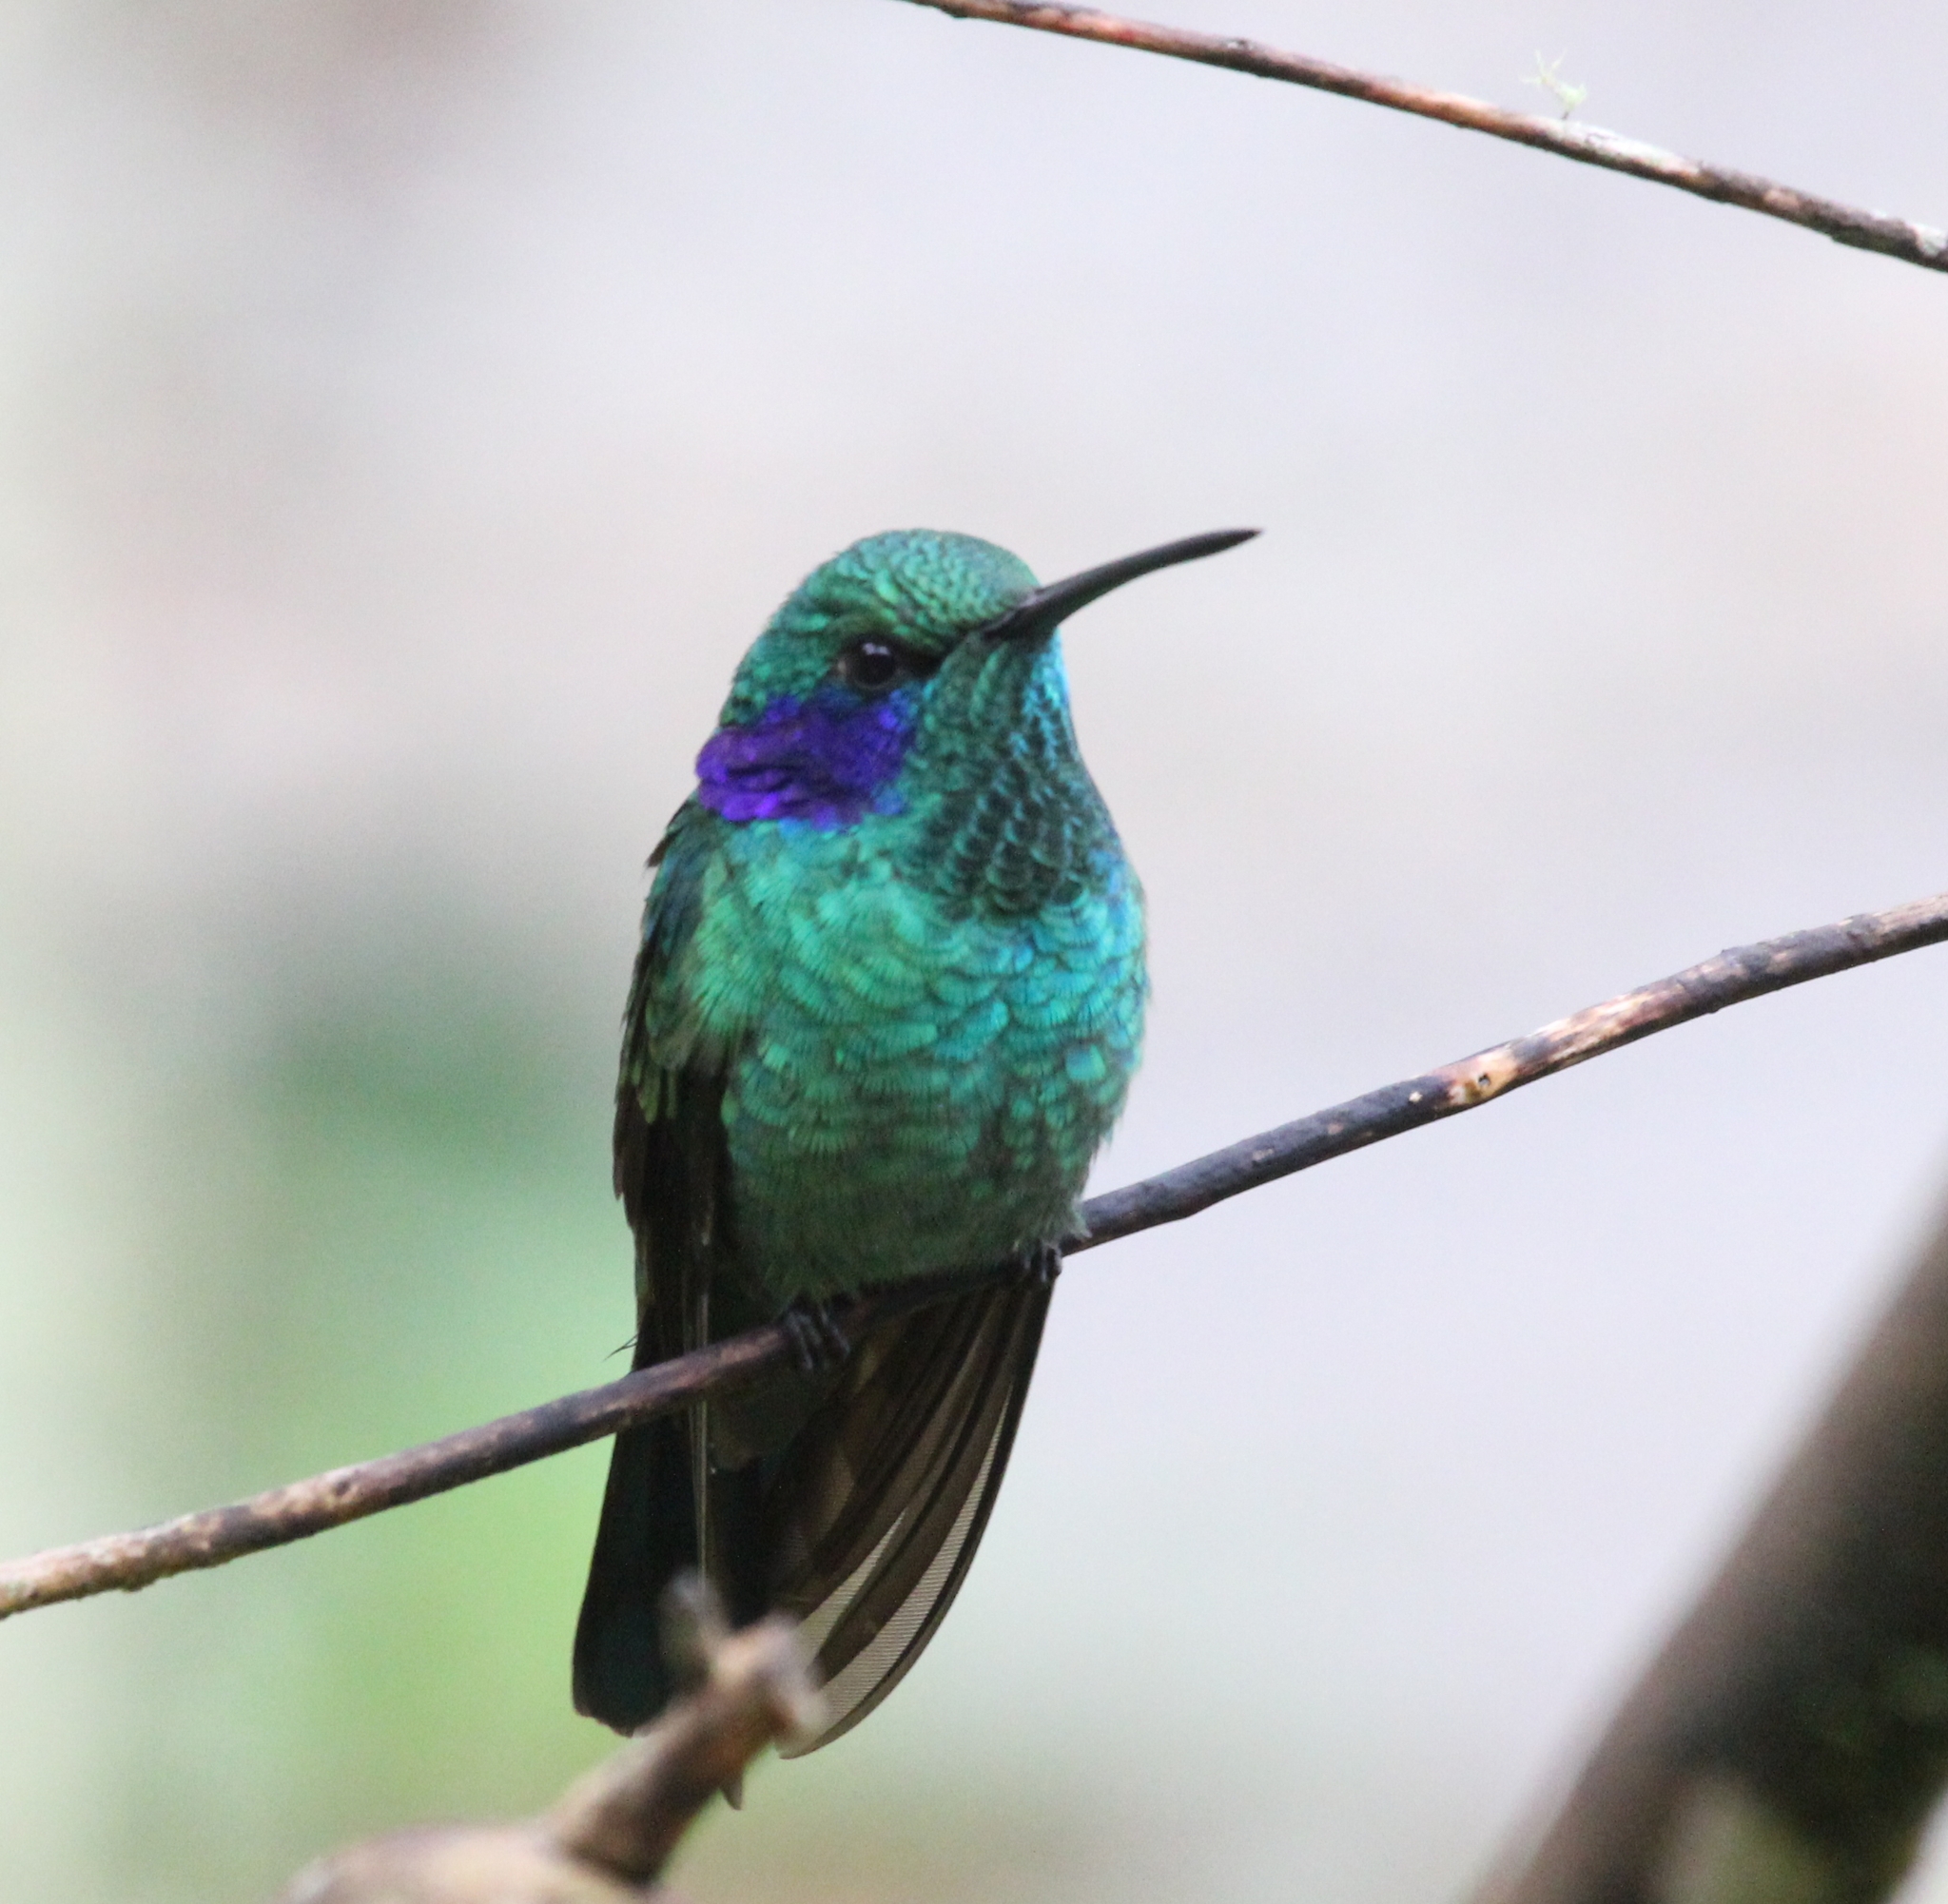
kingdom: Animalia
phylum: Chordata
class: Aves
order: Apodiformes
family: Trochilidae
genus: Colibri
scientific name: Colibri cyanotus
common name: Lesser violetear
